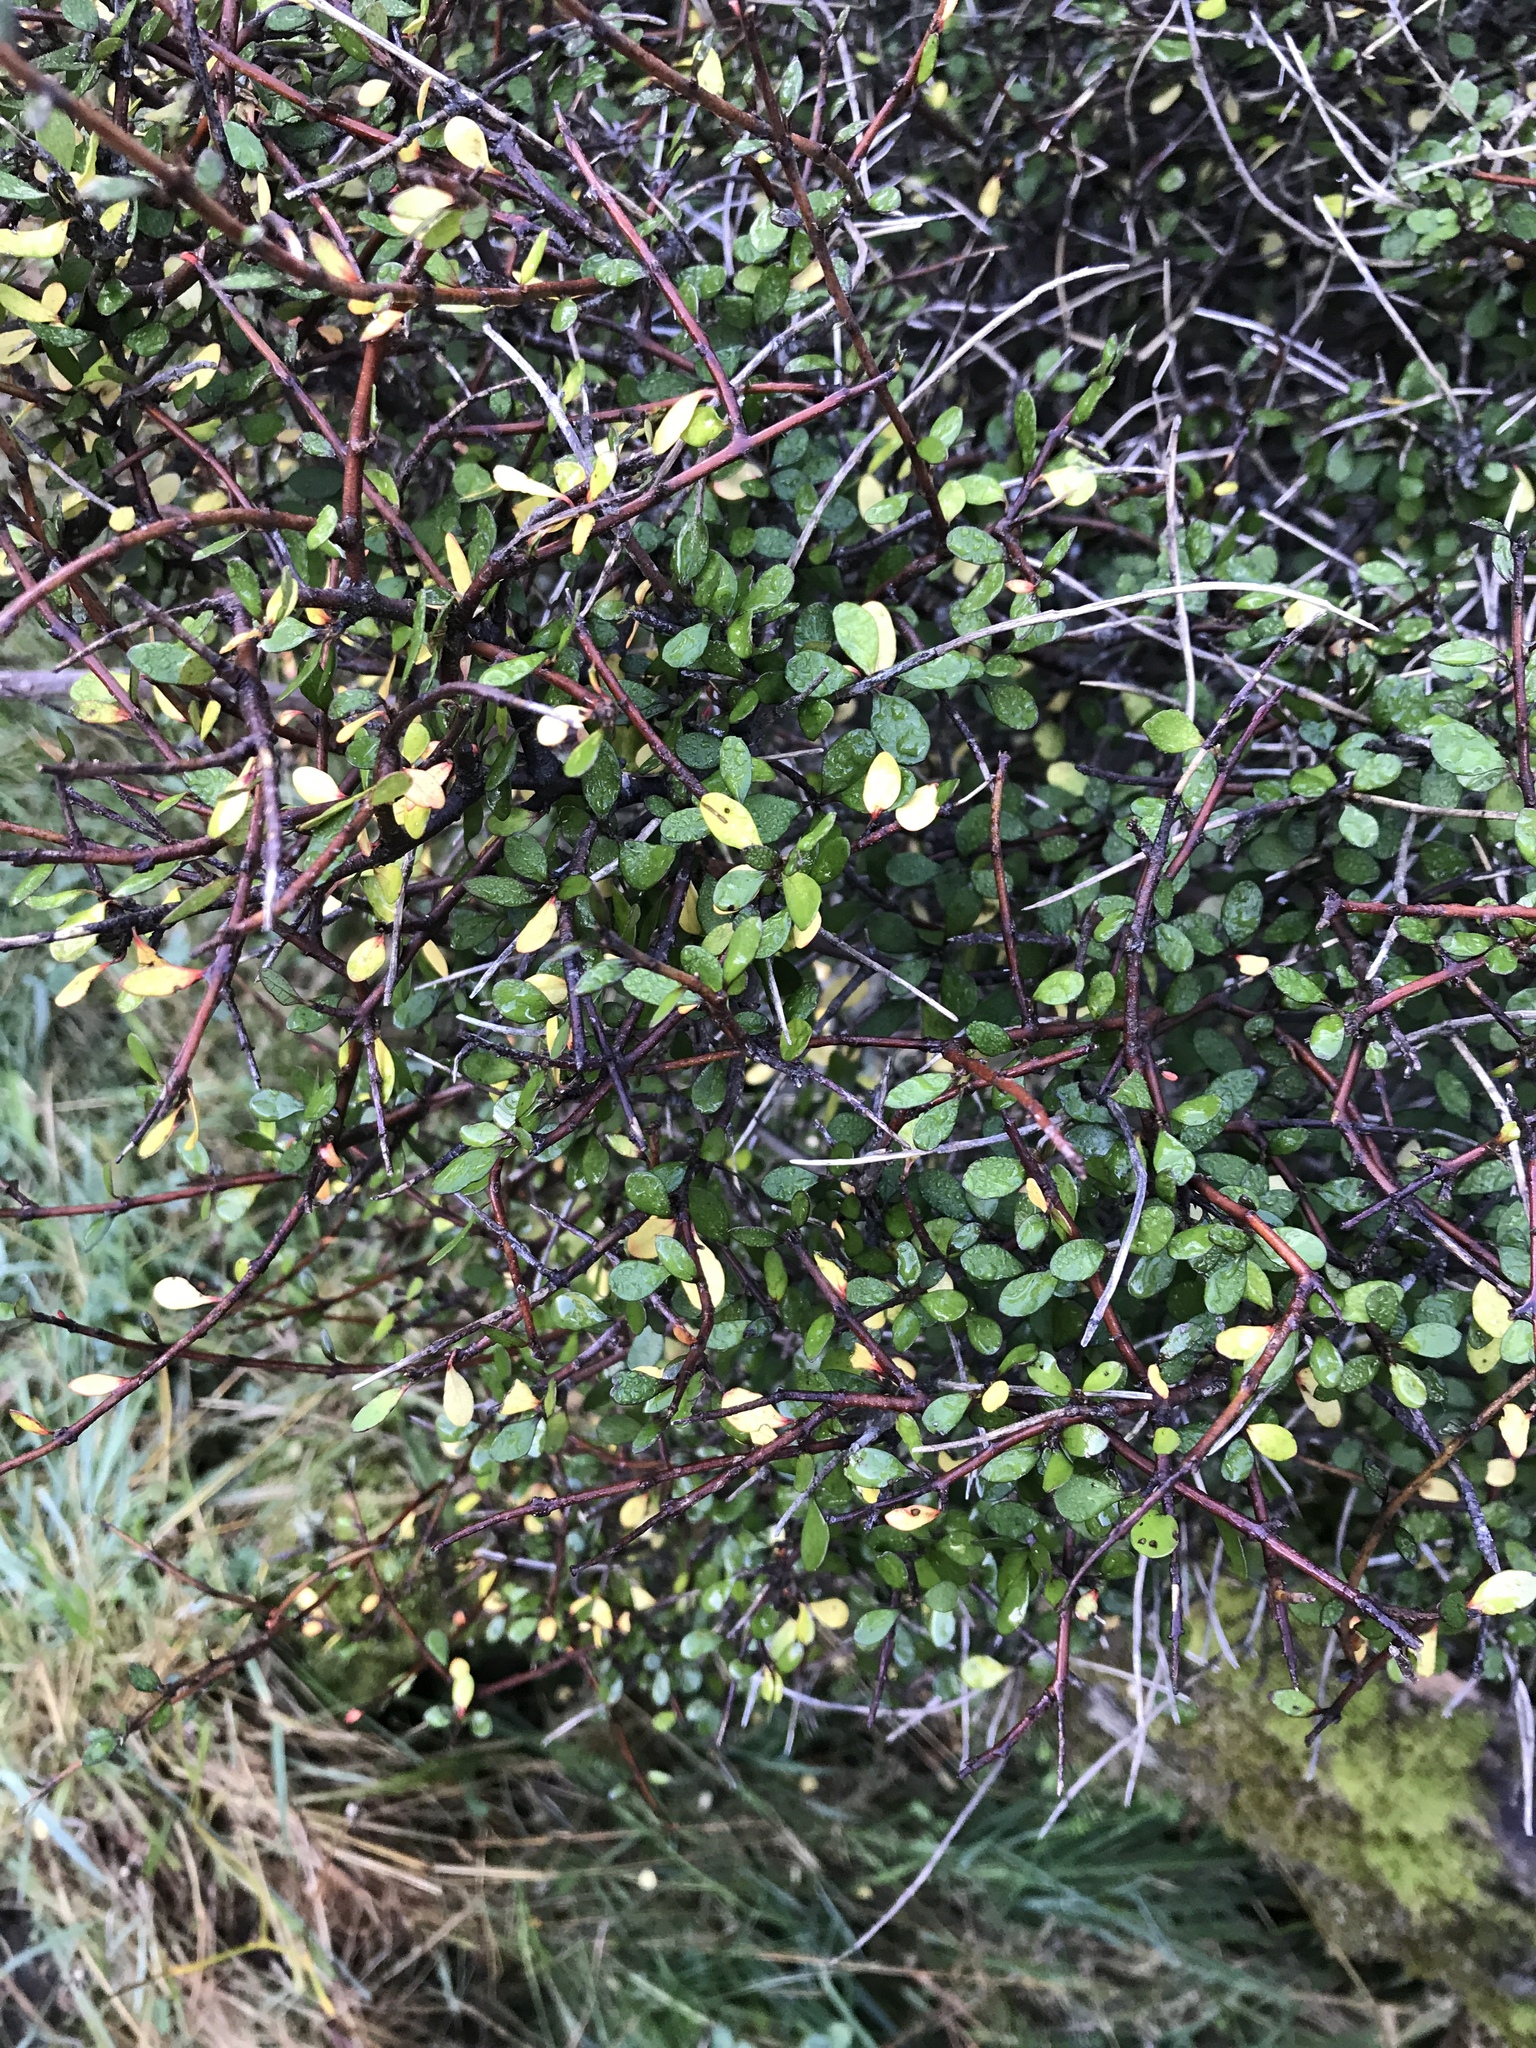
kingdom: Plantae
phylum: Tracheophyta
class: Magnoliopsida
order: Oxalidales
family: Elaeocarpaceae
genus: Aristotelia
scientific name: Aristotelia fruticosa
